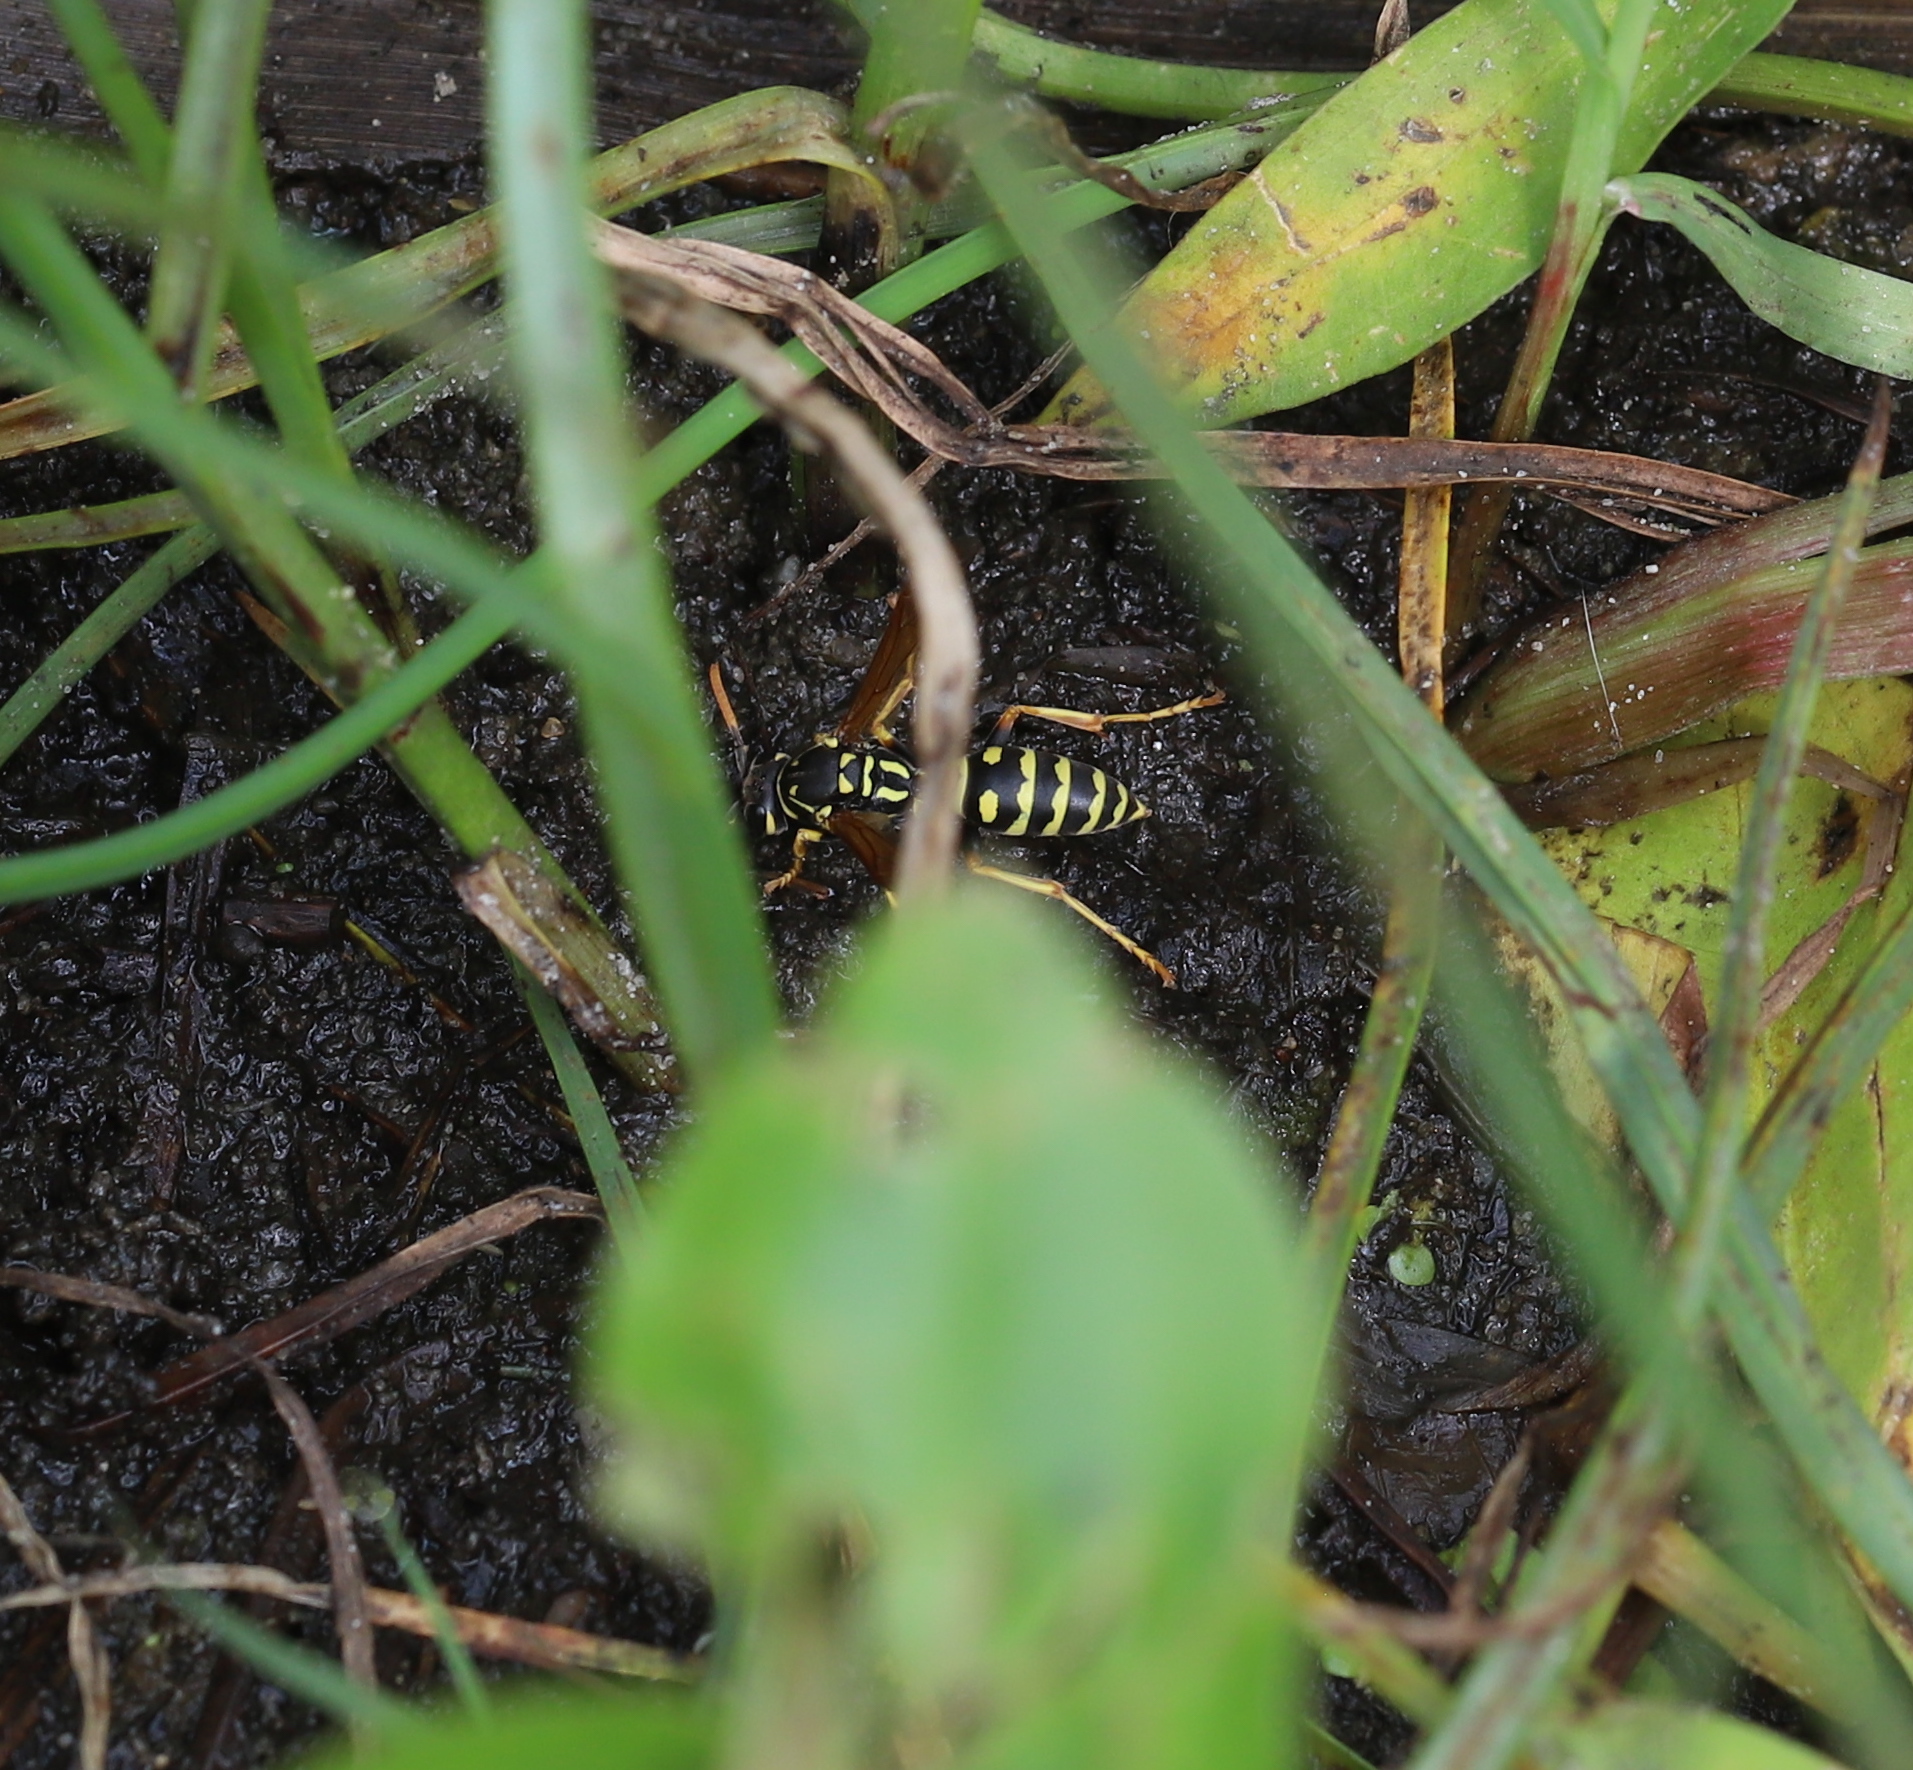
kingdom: Animalia
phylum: Arthropoda
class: Insecta
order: Hymenoptera
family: Eumenidae
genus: Polistes
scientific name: Polistes dominula
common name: Paper wasp
